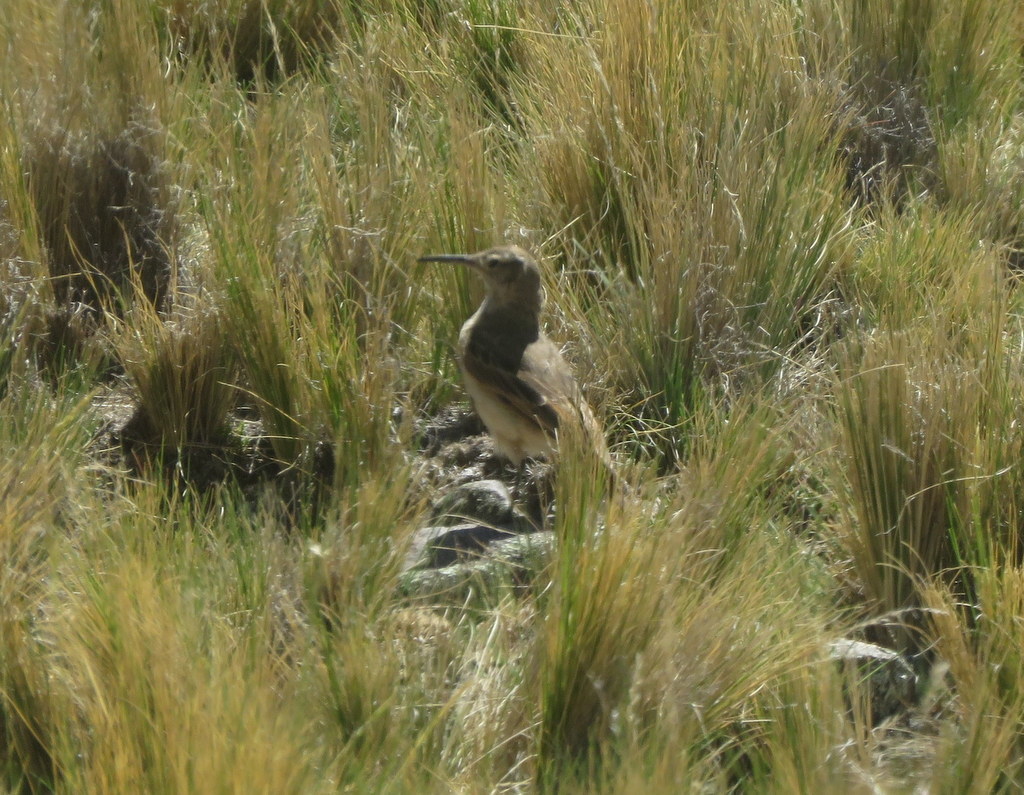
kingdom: Animalia
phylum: Chordata
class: Aves
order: Passeriformes
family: Furnariidae
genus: Geositta
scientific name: Geositta tenuirostris
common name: Slender-billed miner
